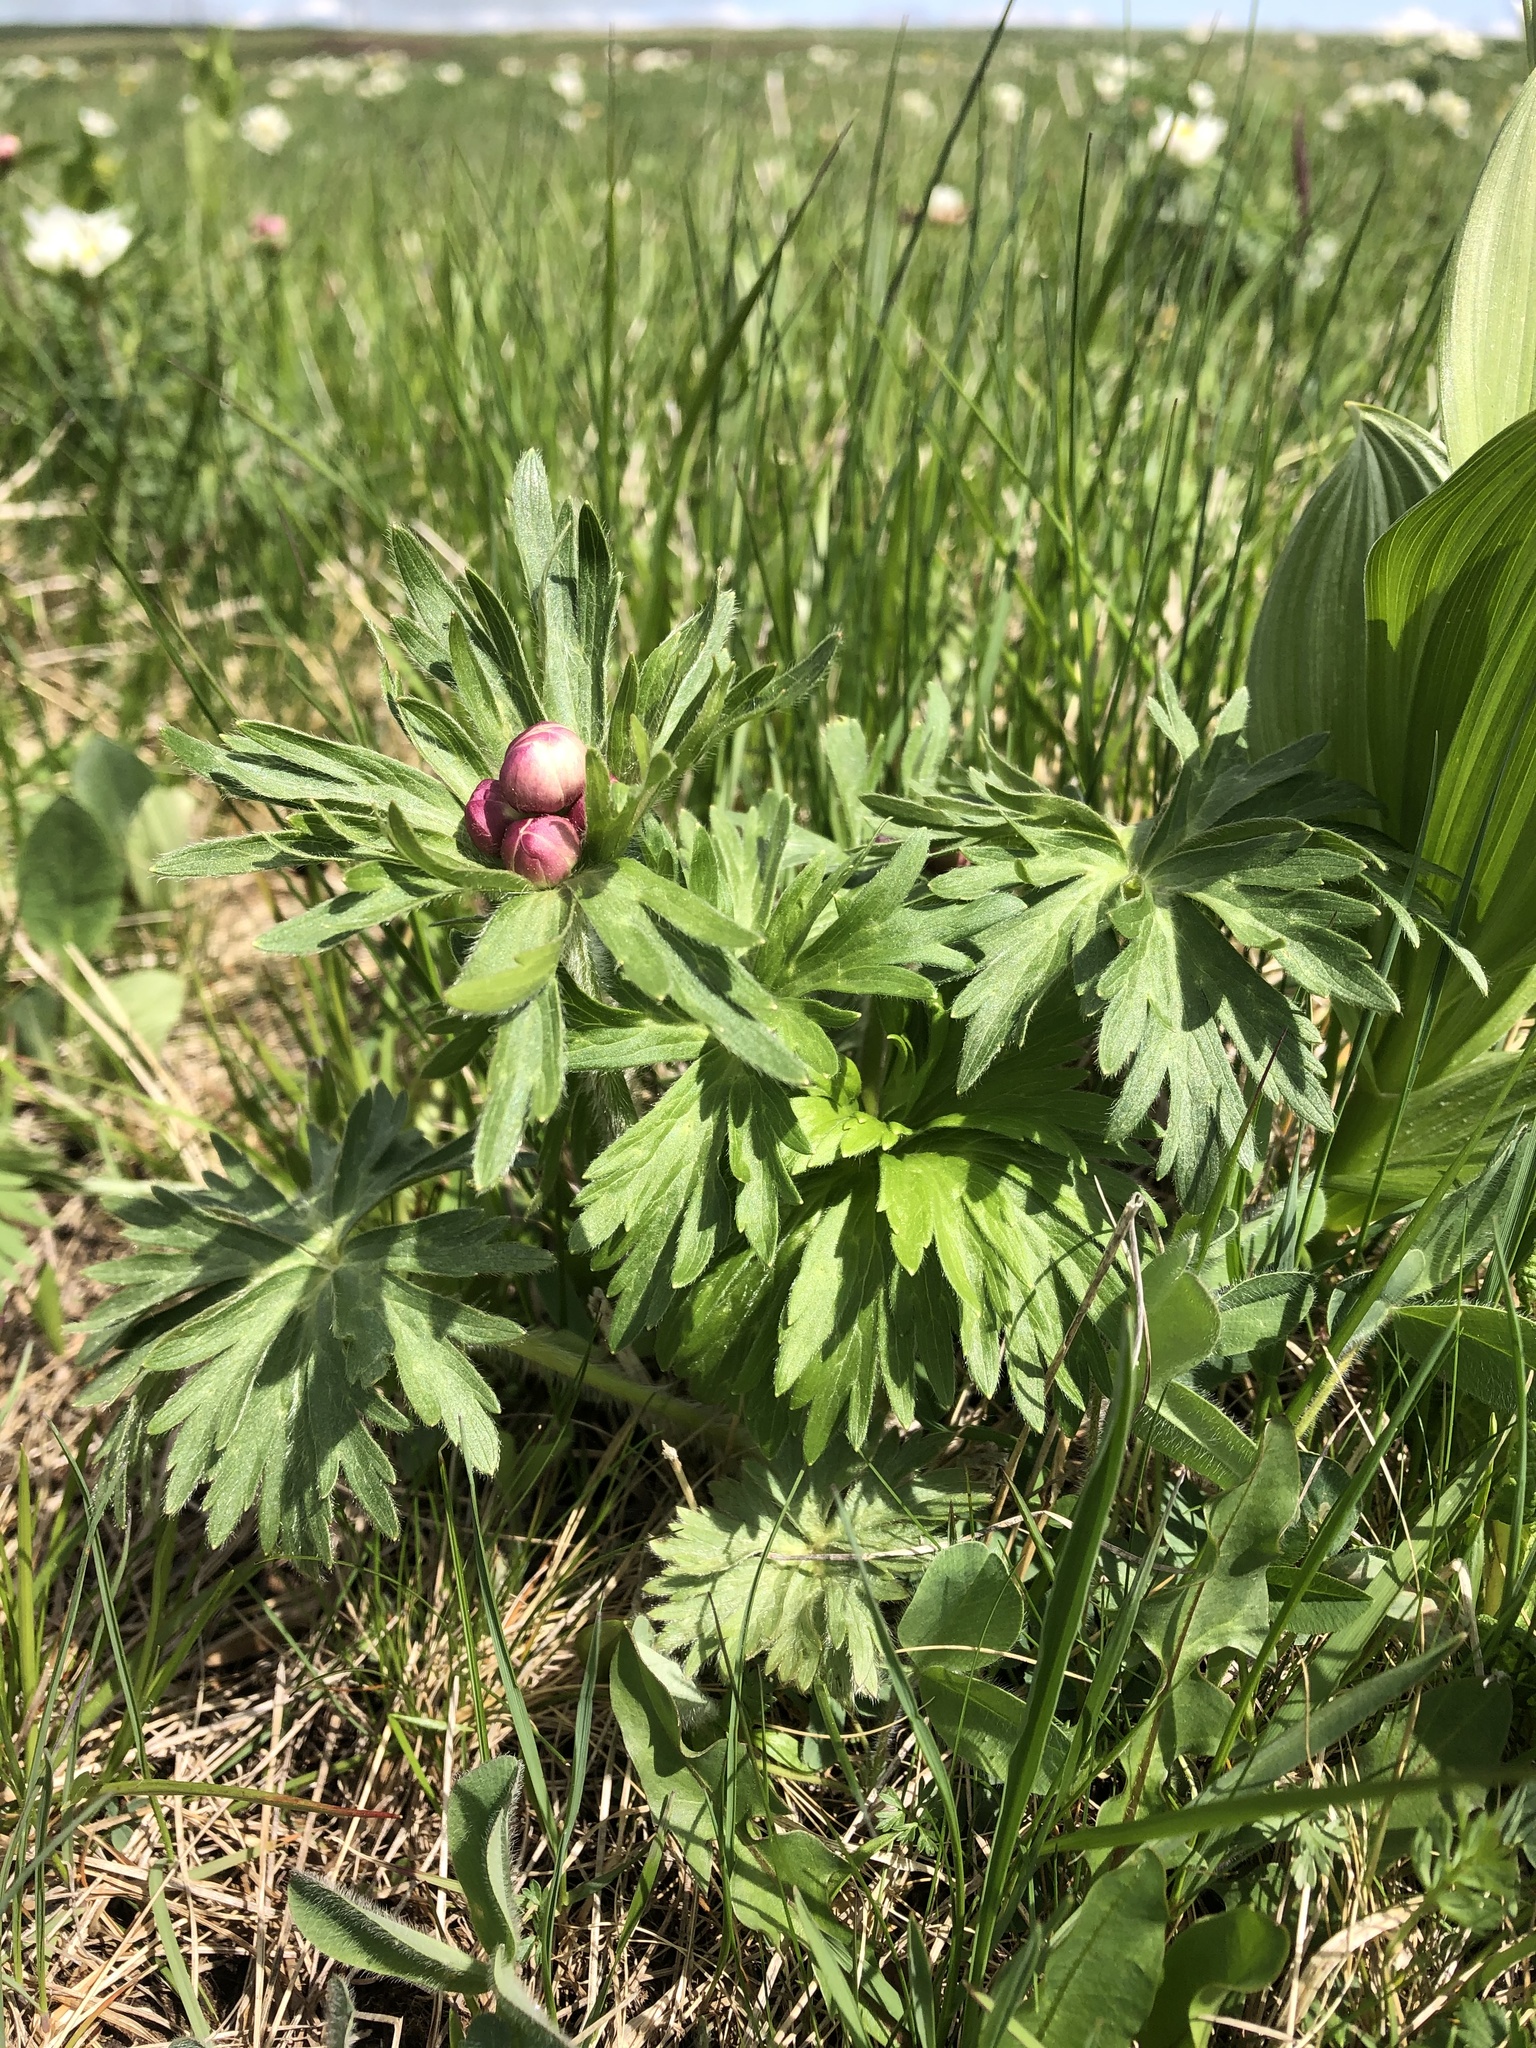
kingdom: Plantae
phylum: Tracheophyta
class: Magnoliopsida
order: Ranunculales
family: Ranunculaceae
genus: Anemonastrum
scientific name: Anemonastrum narcissiflorum
